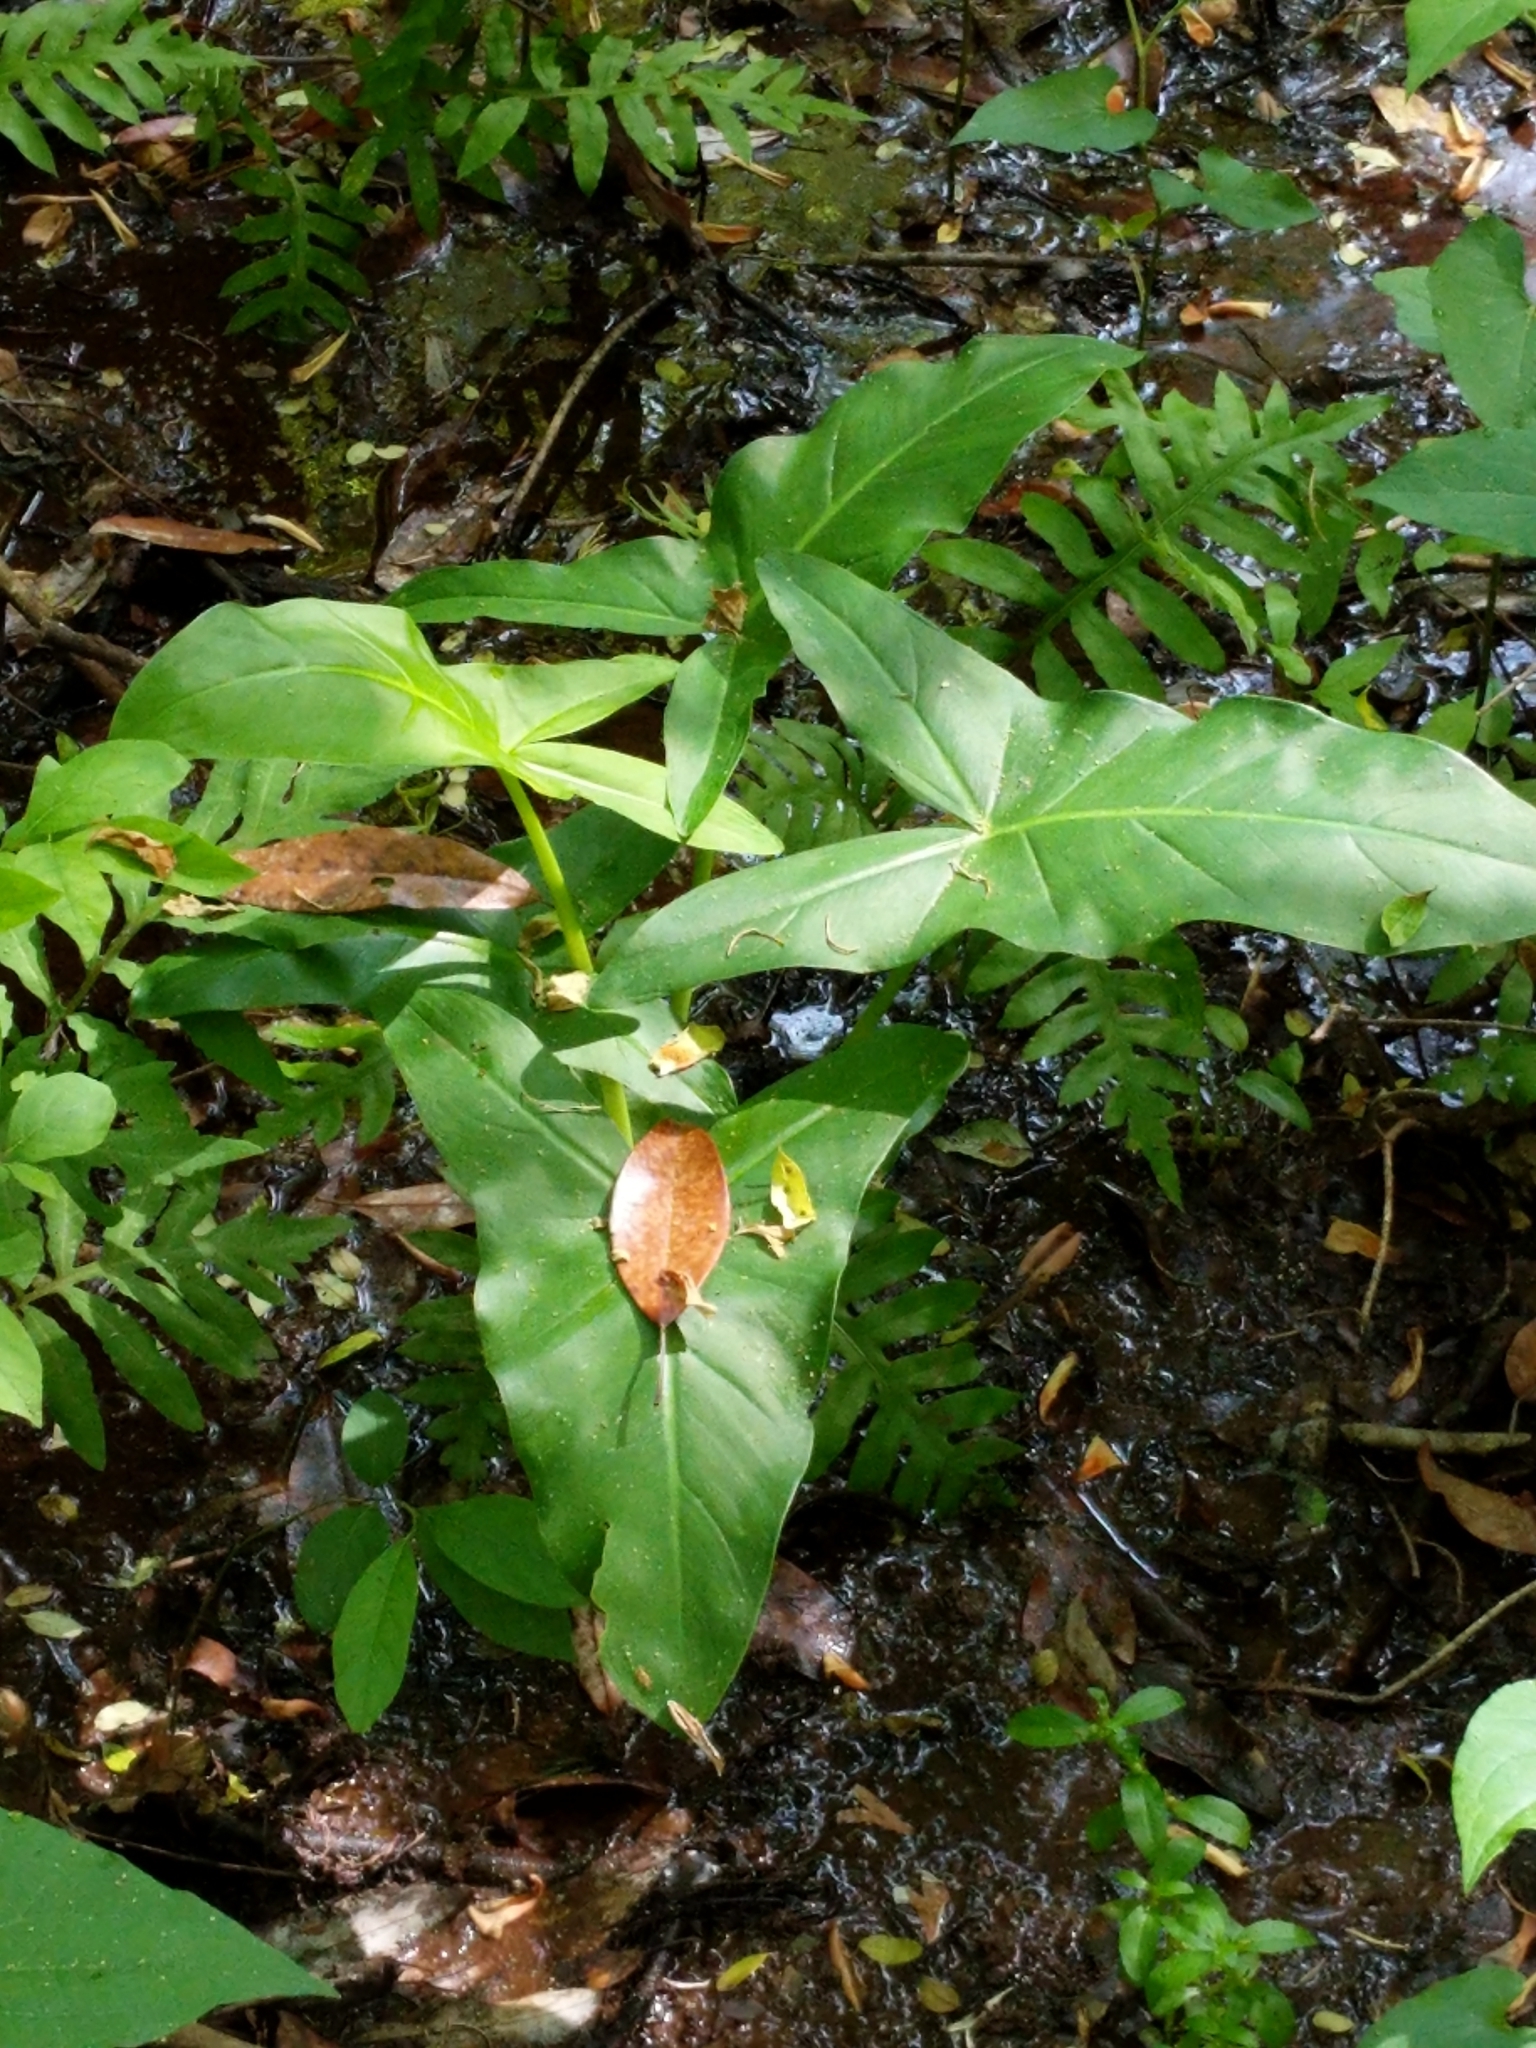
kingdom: Plantae
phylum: Tracheophyta
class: Liliopsida
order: Alismatales
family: Araceae
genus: Peltandra
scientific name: Peltandra virginica
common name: Arrow arum
